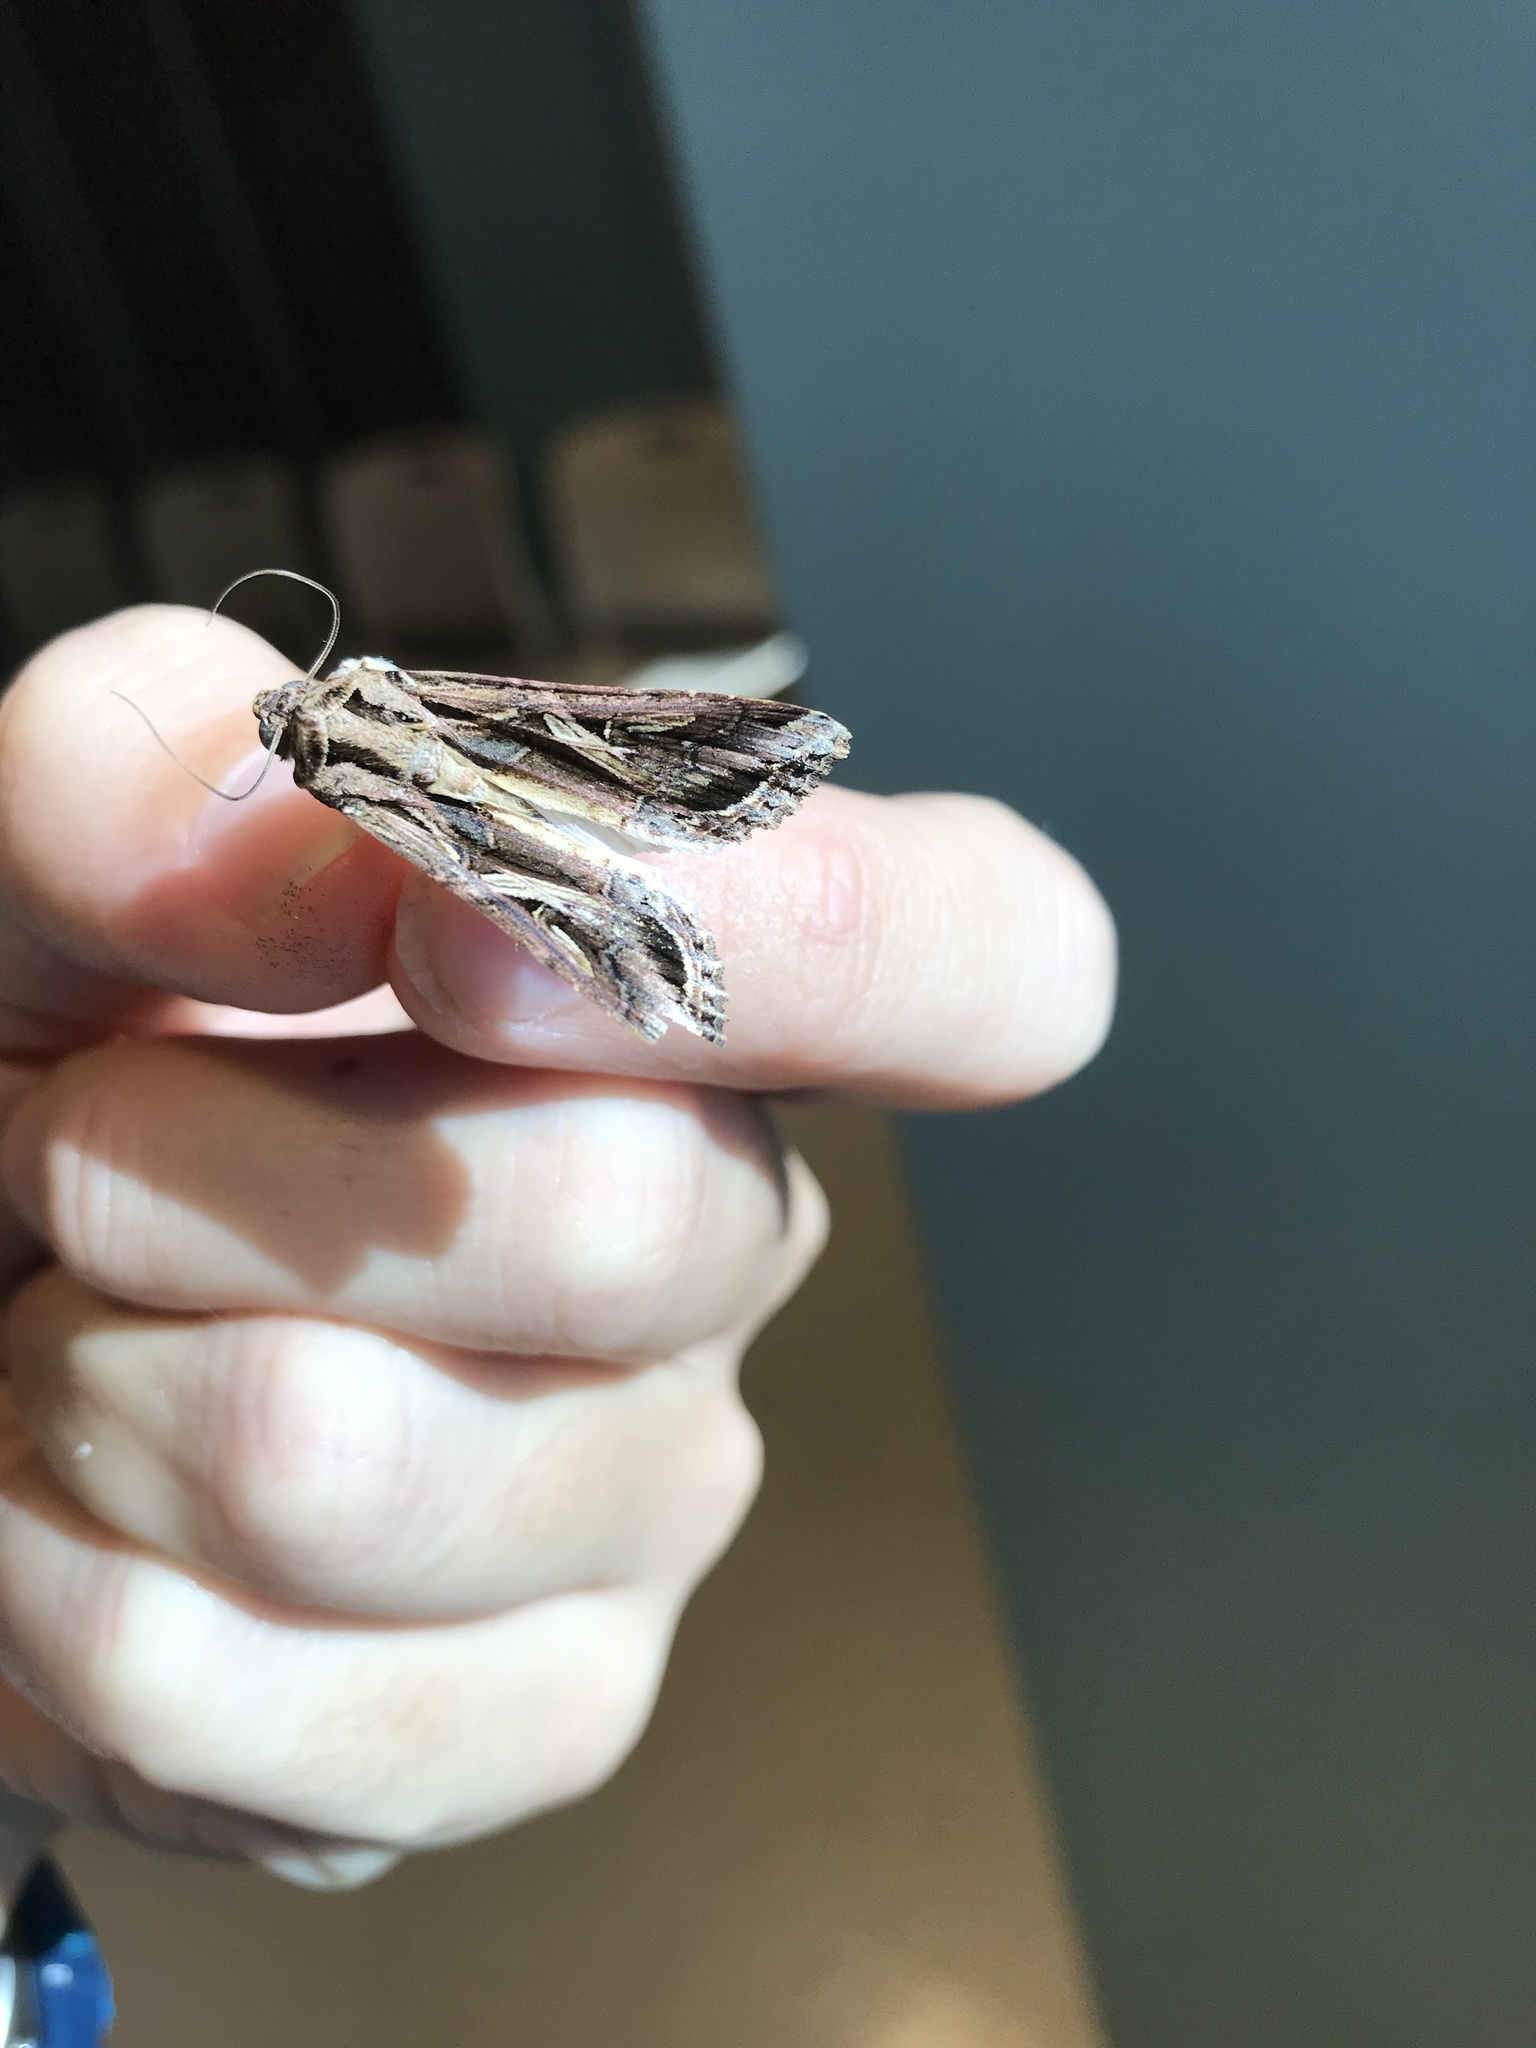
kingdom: Animalia
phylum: Arthropoda
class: Insecta
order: Lepidoptera
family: Noctuidae
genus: Spodoptera
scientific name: Spodoptera dolichos
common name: Sweetpotato armyworm
